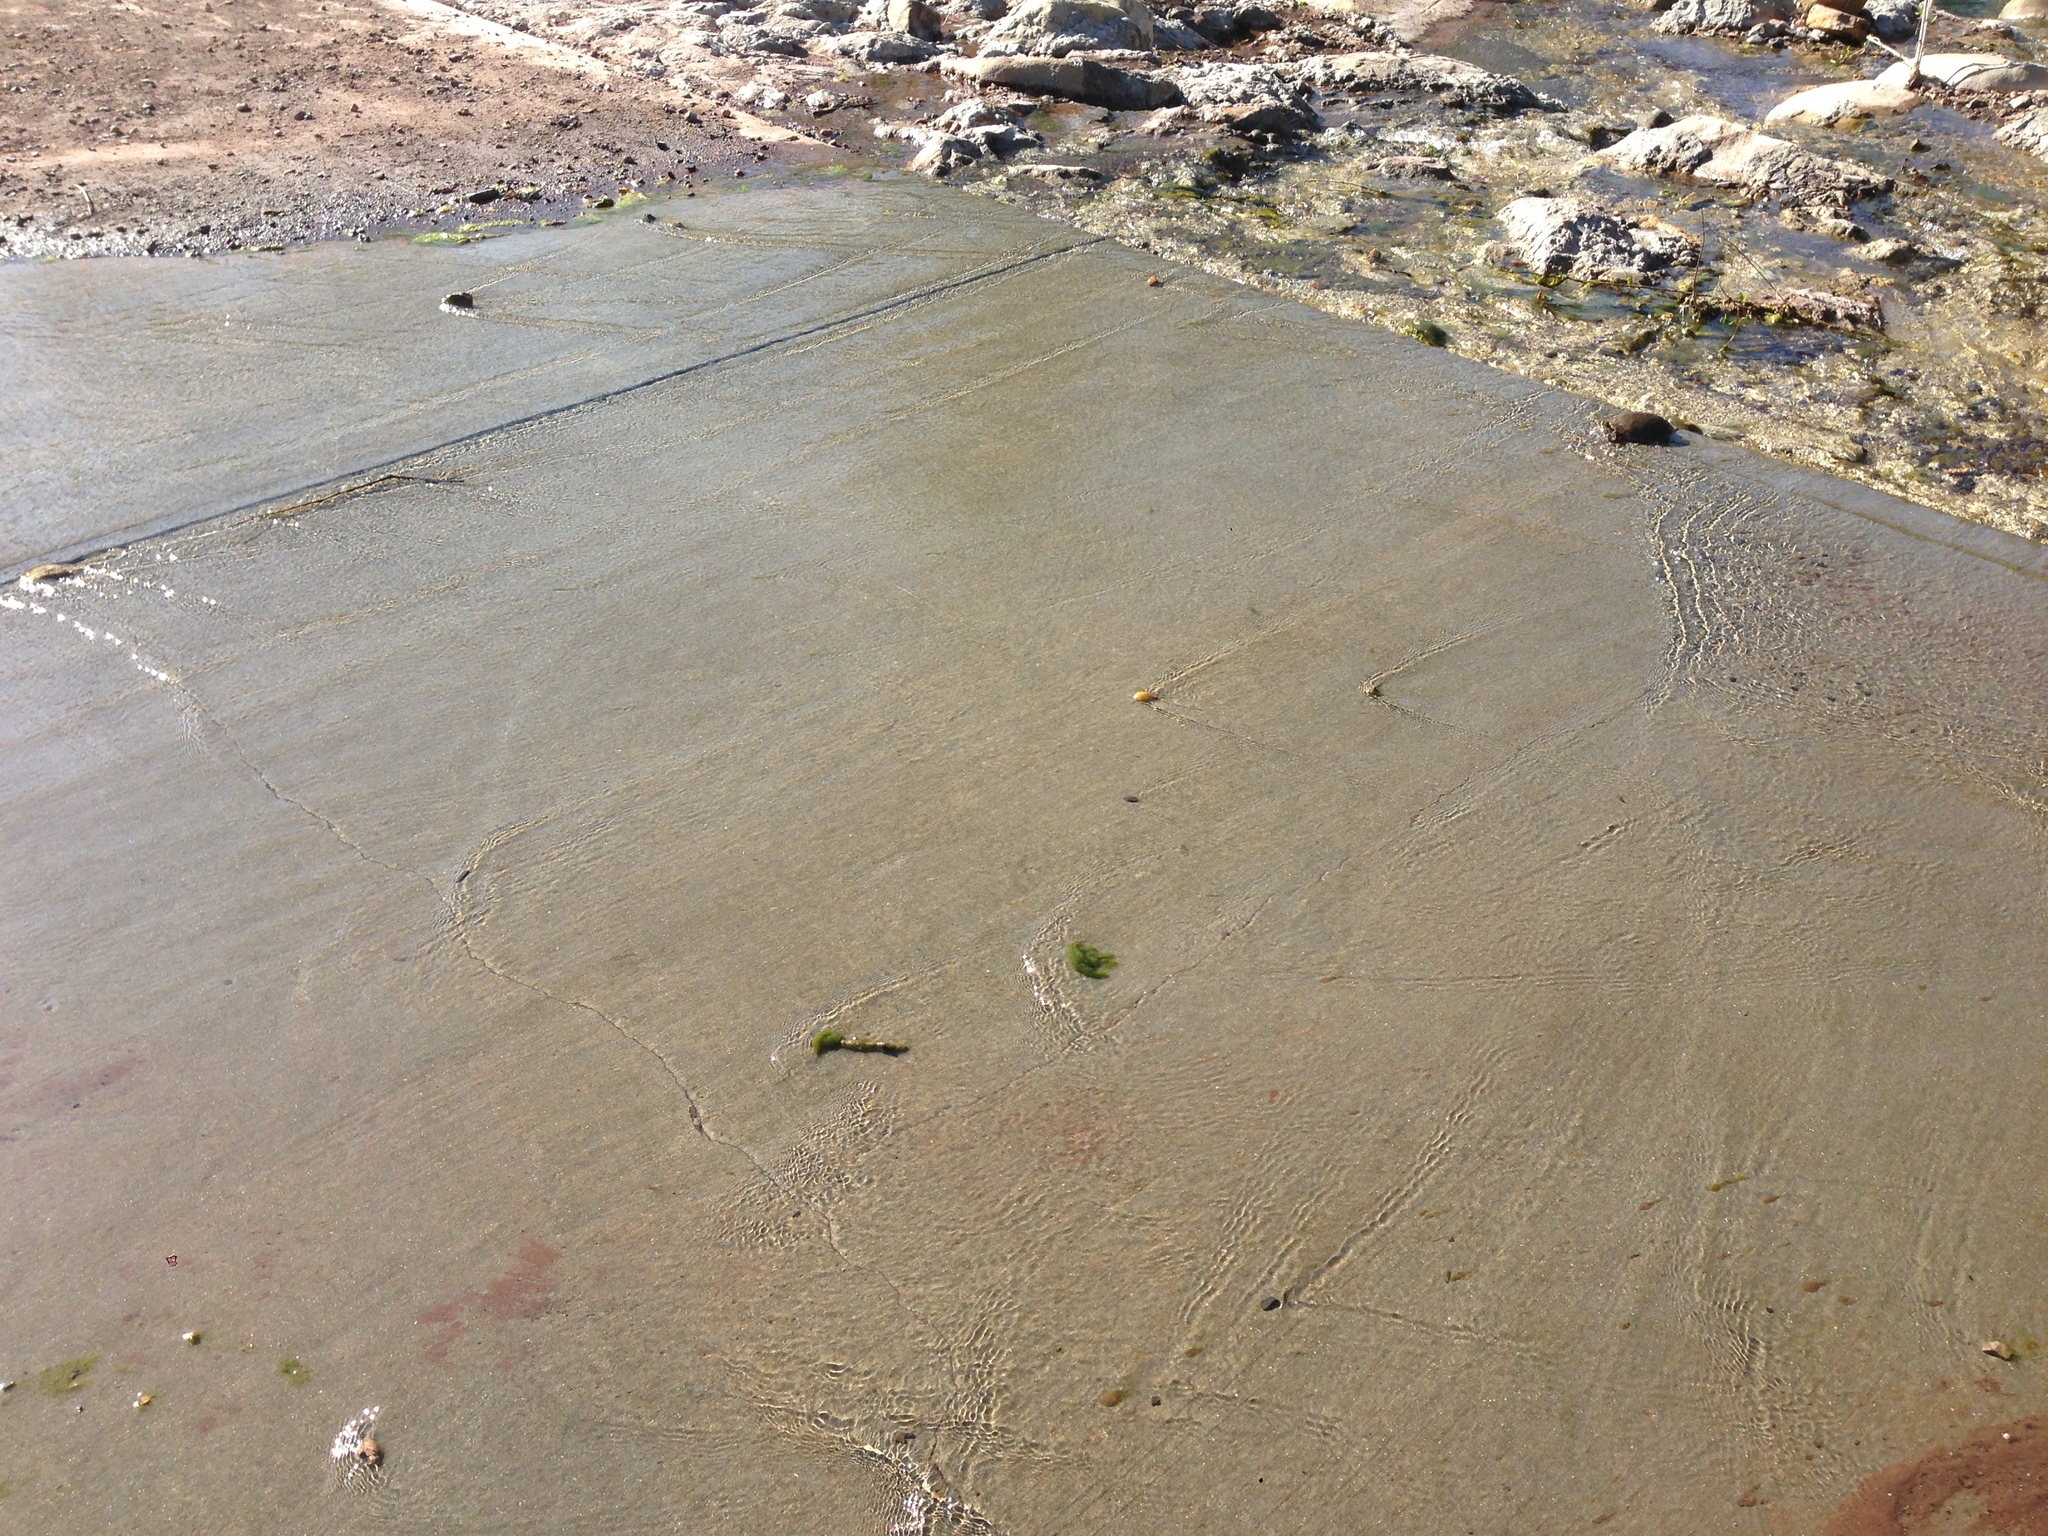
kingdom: Animalia
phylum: Chordata
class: Testudines
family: Emydidae
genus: Actinemys
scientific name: Actinemys marmorata
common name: Western pond turtle
